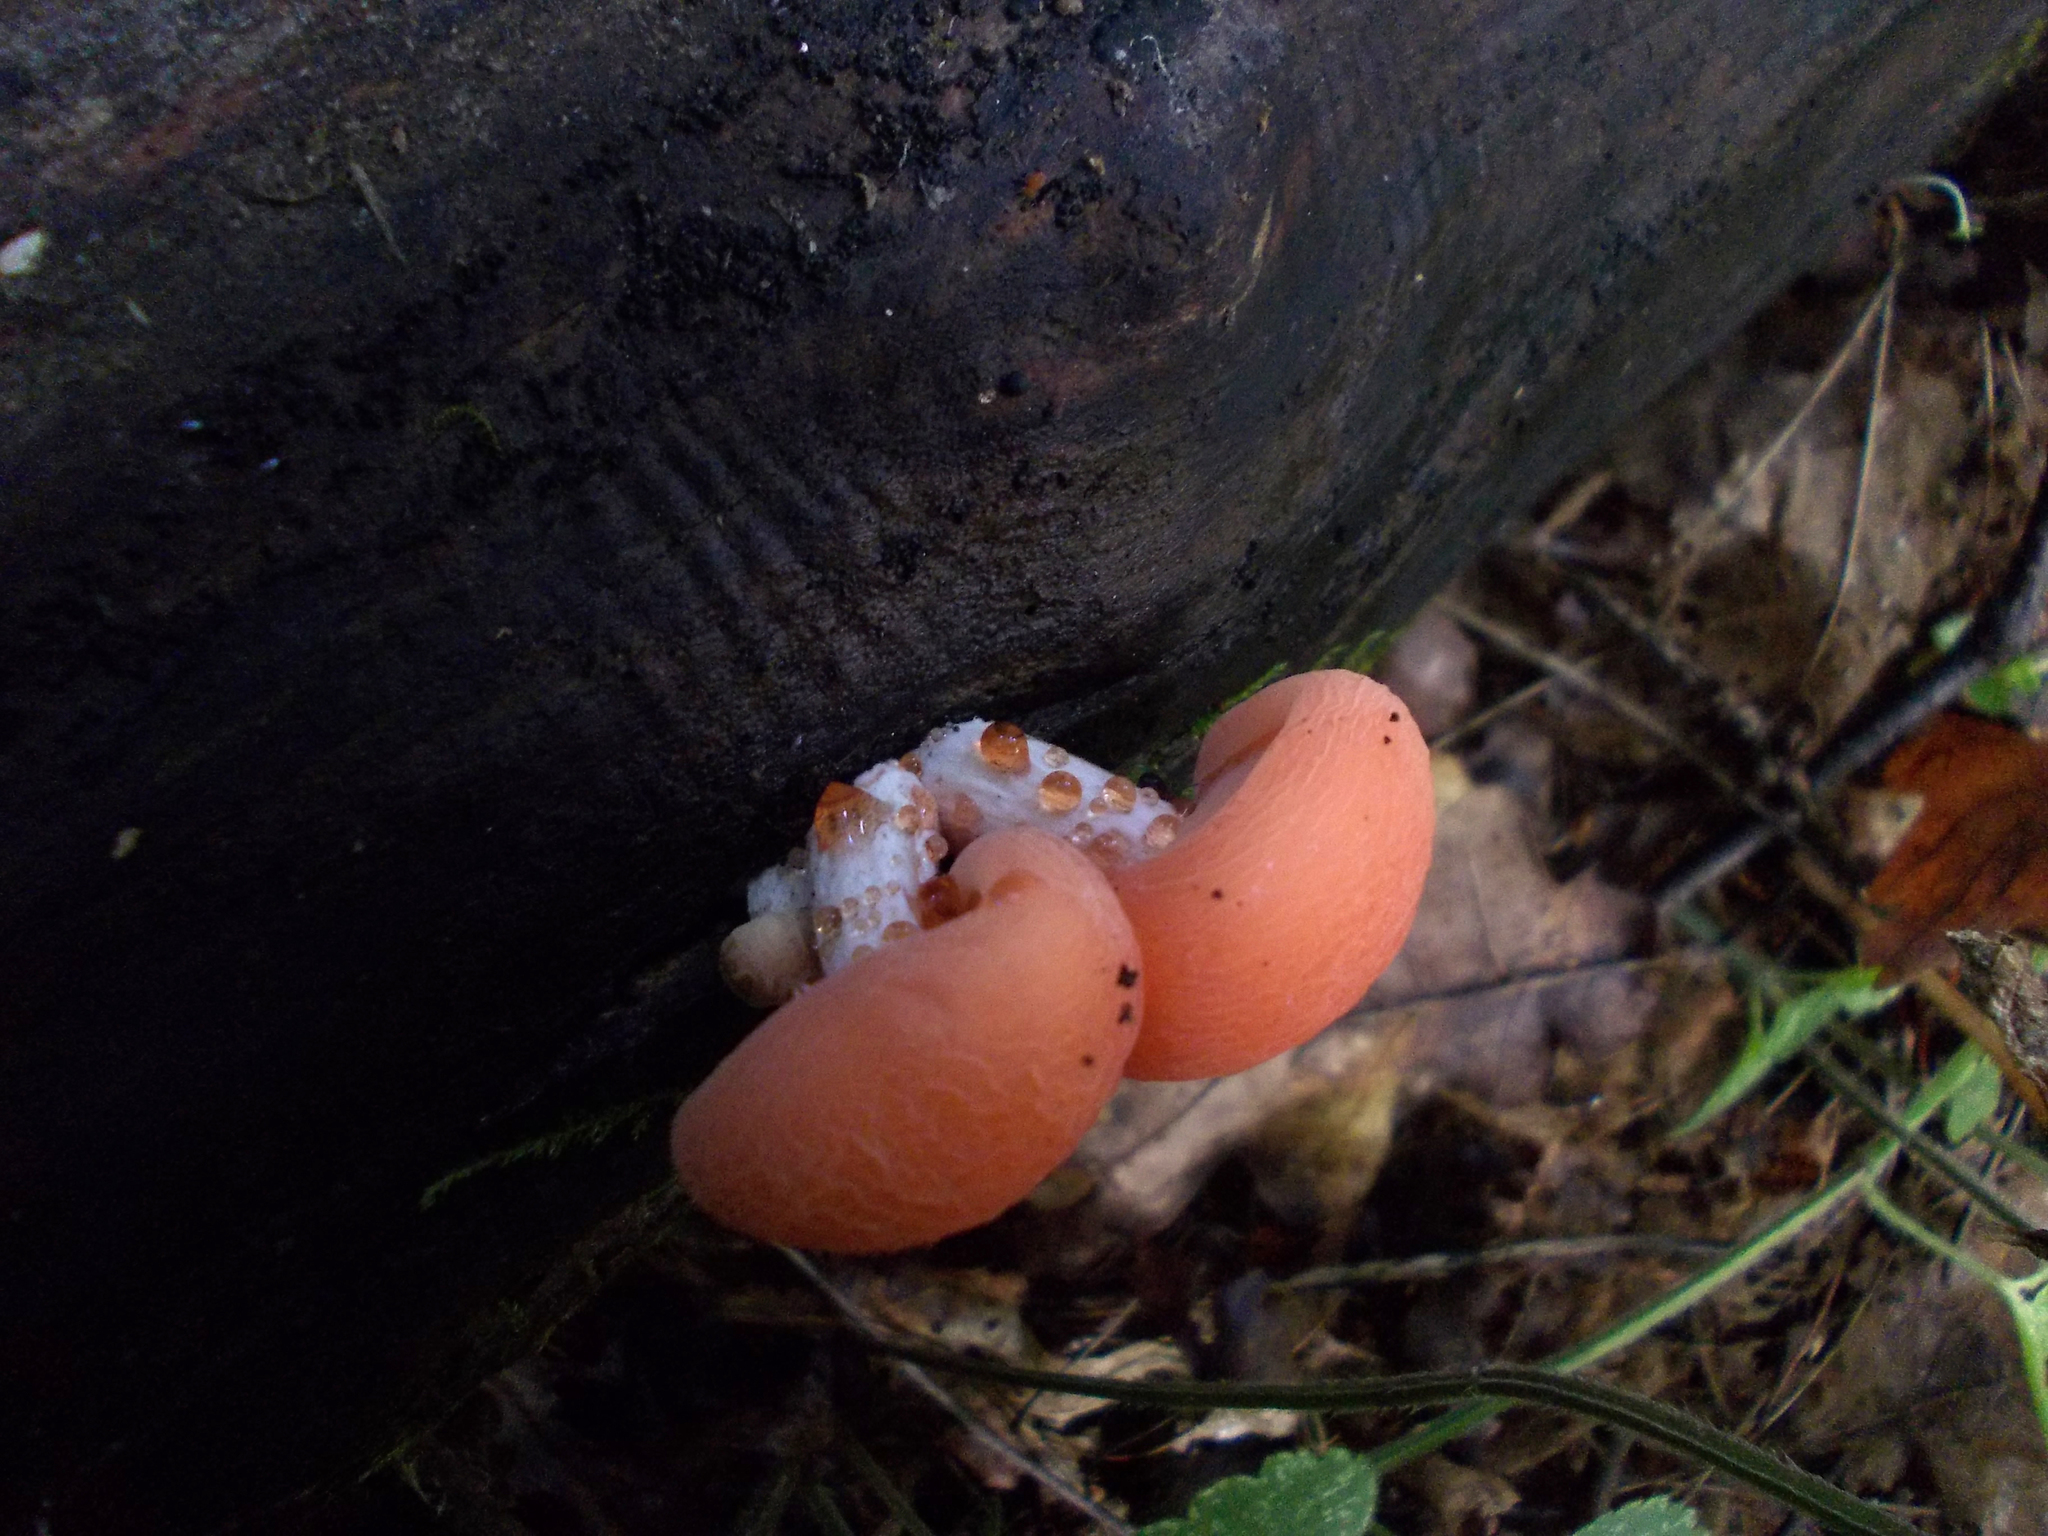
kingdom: Fungi
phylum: Basidiomycota
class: Agaricomycetes
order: Agaricales
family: Physalacriaceae
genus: Rhodotus
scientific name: Rhodotus palmatus
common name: Wrinkled peach
